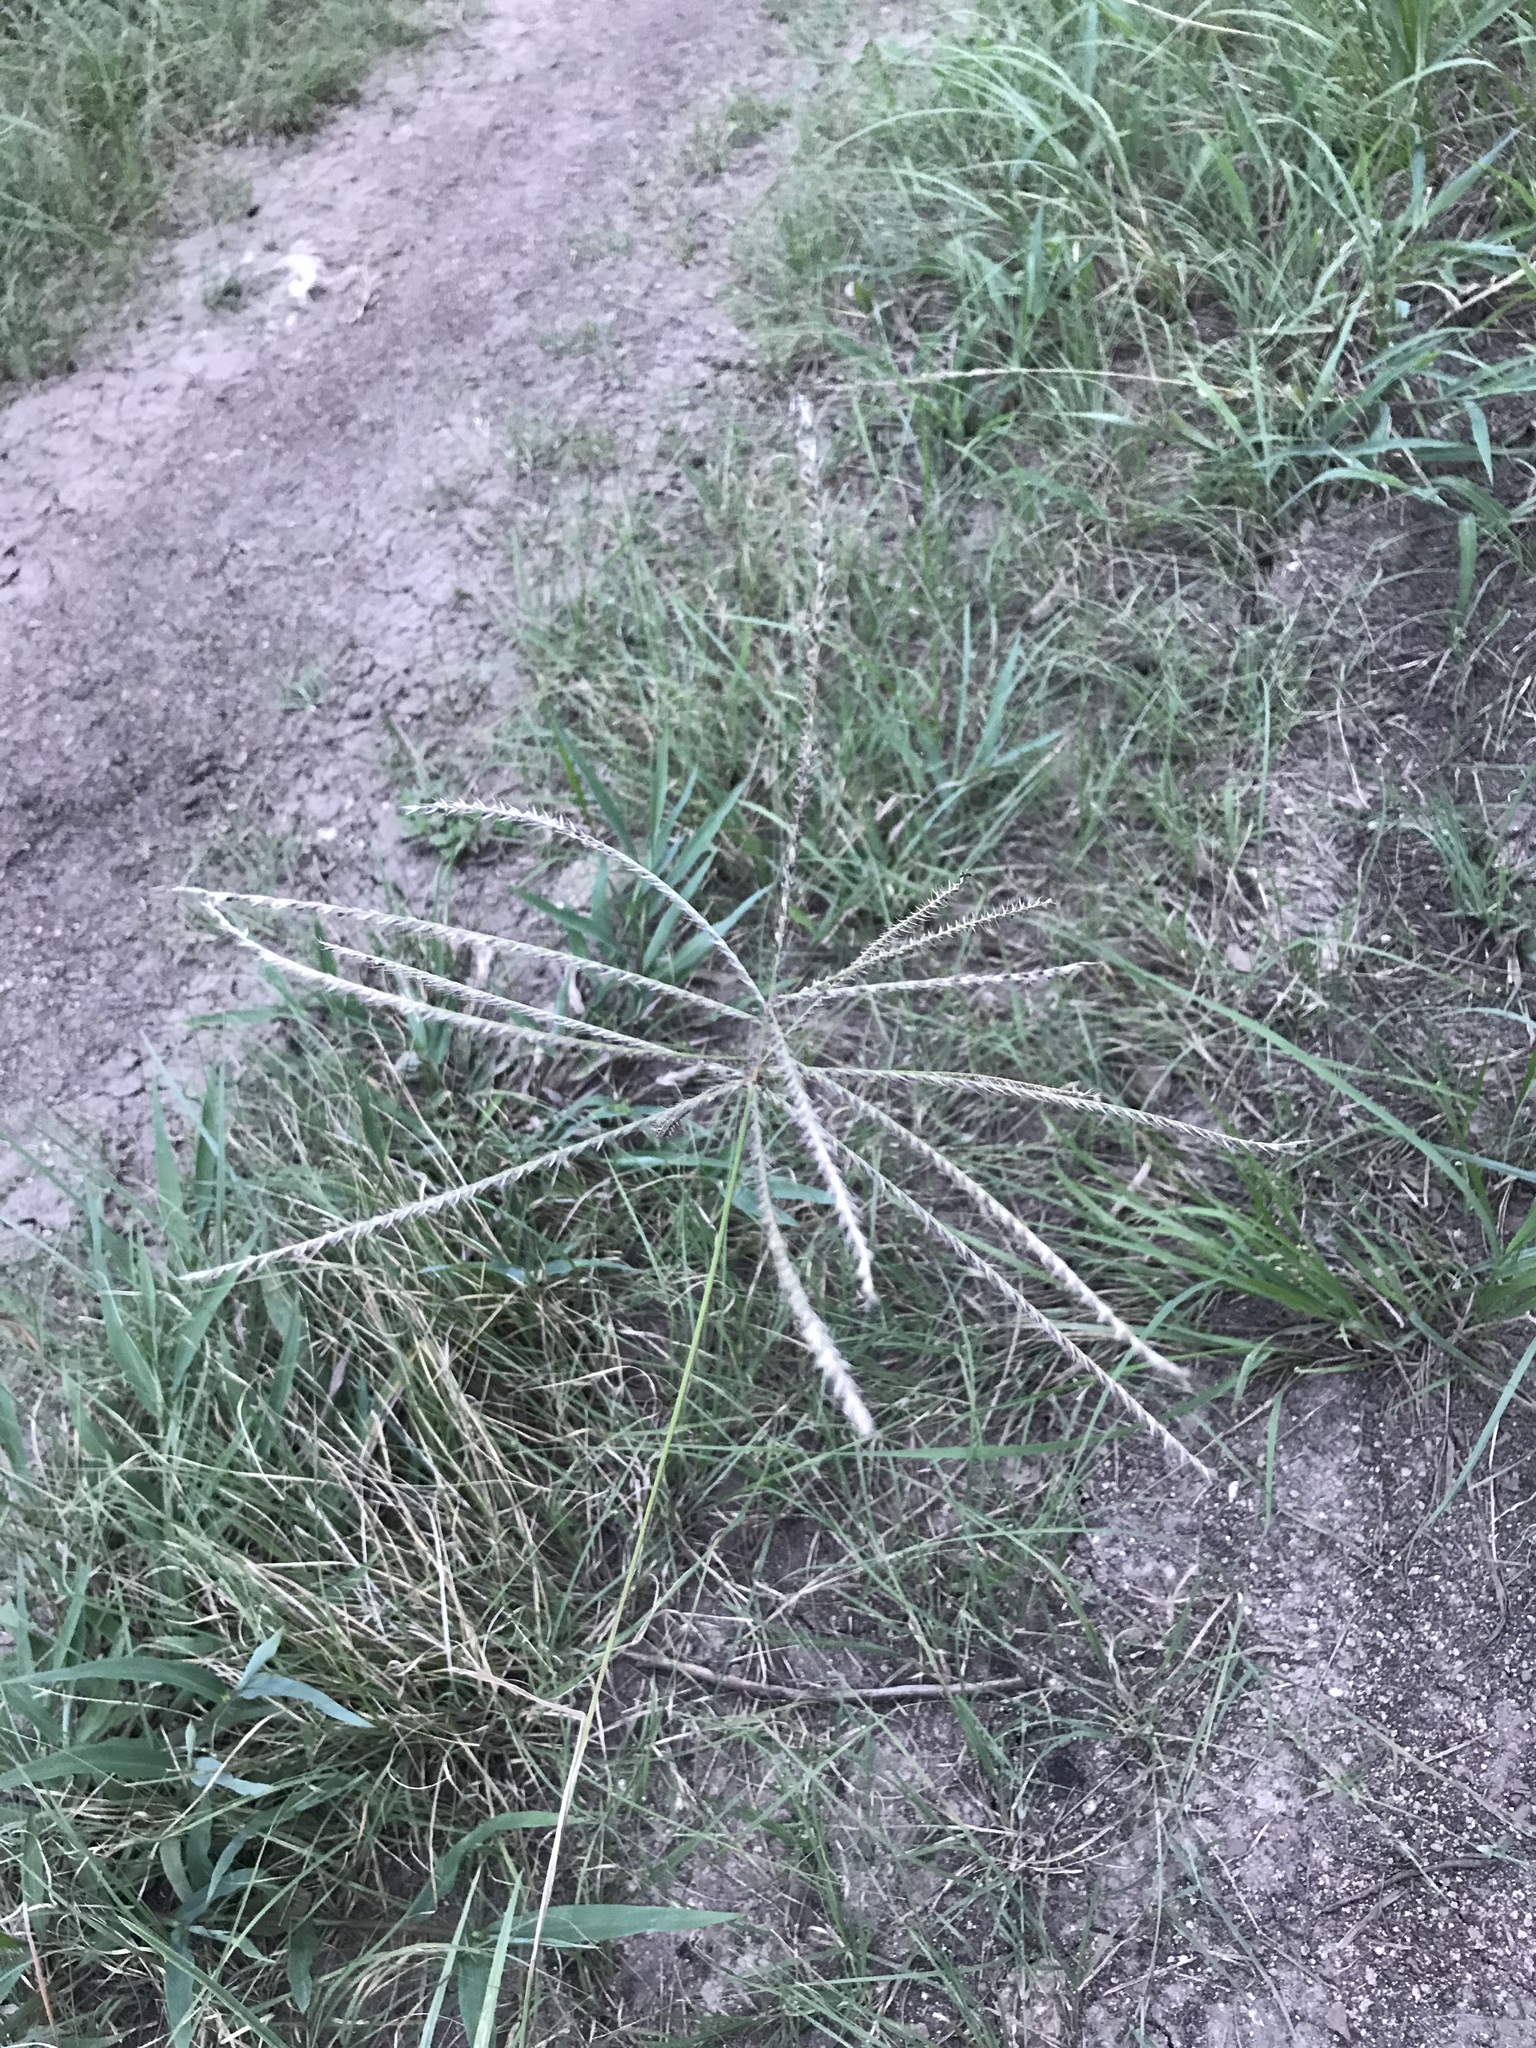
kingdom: Plantae
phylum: Tracheophyta
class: Liliopsida
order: Poales
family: Poaceae
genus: Chloris
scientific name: Chloris subdolichostachya
